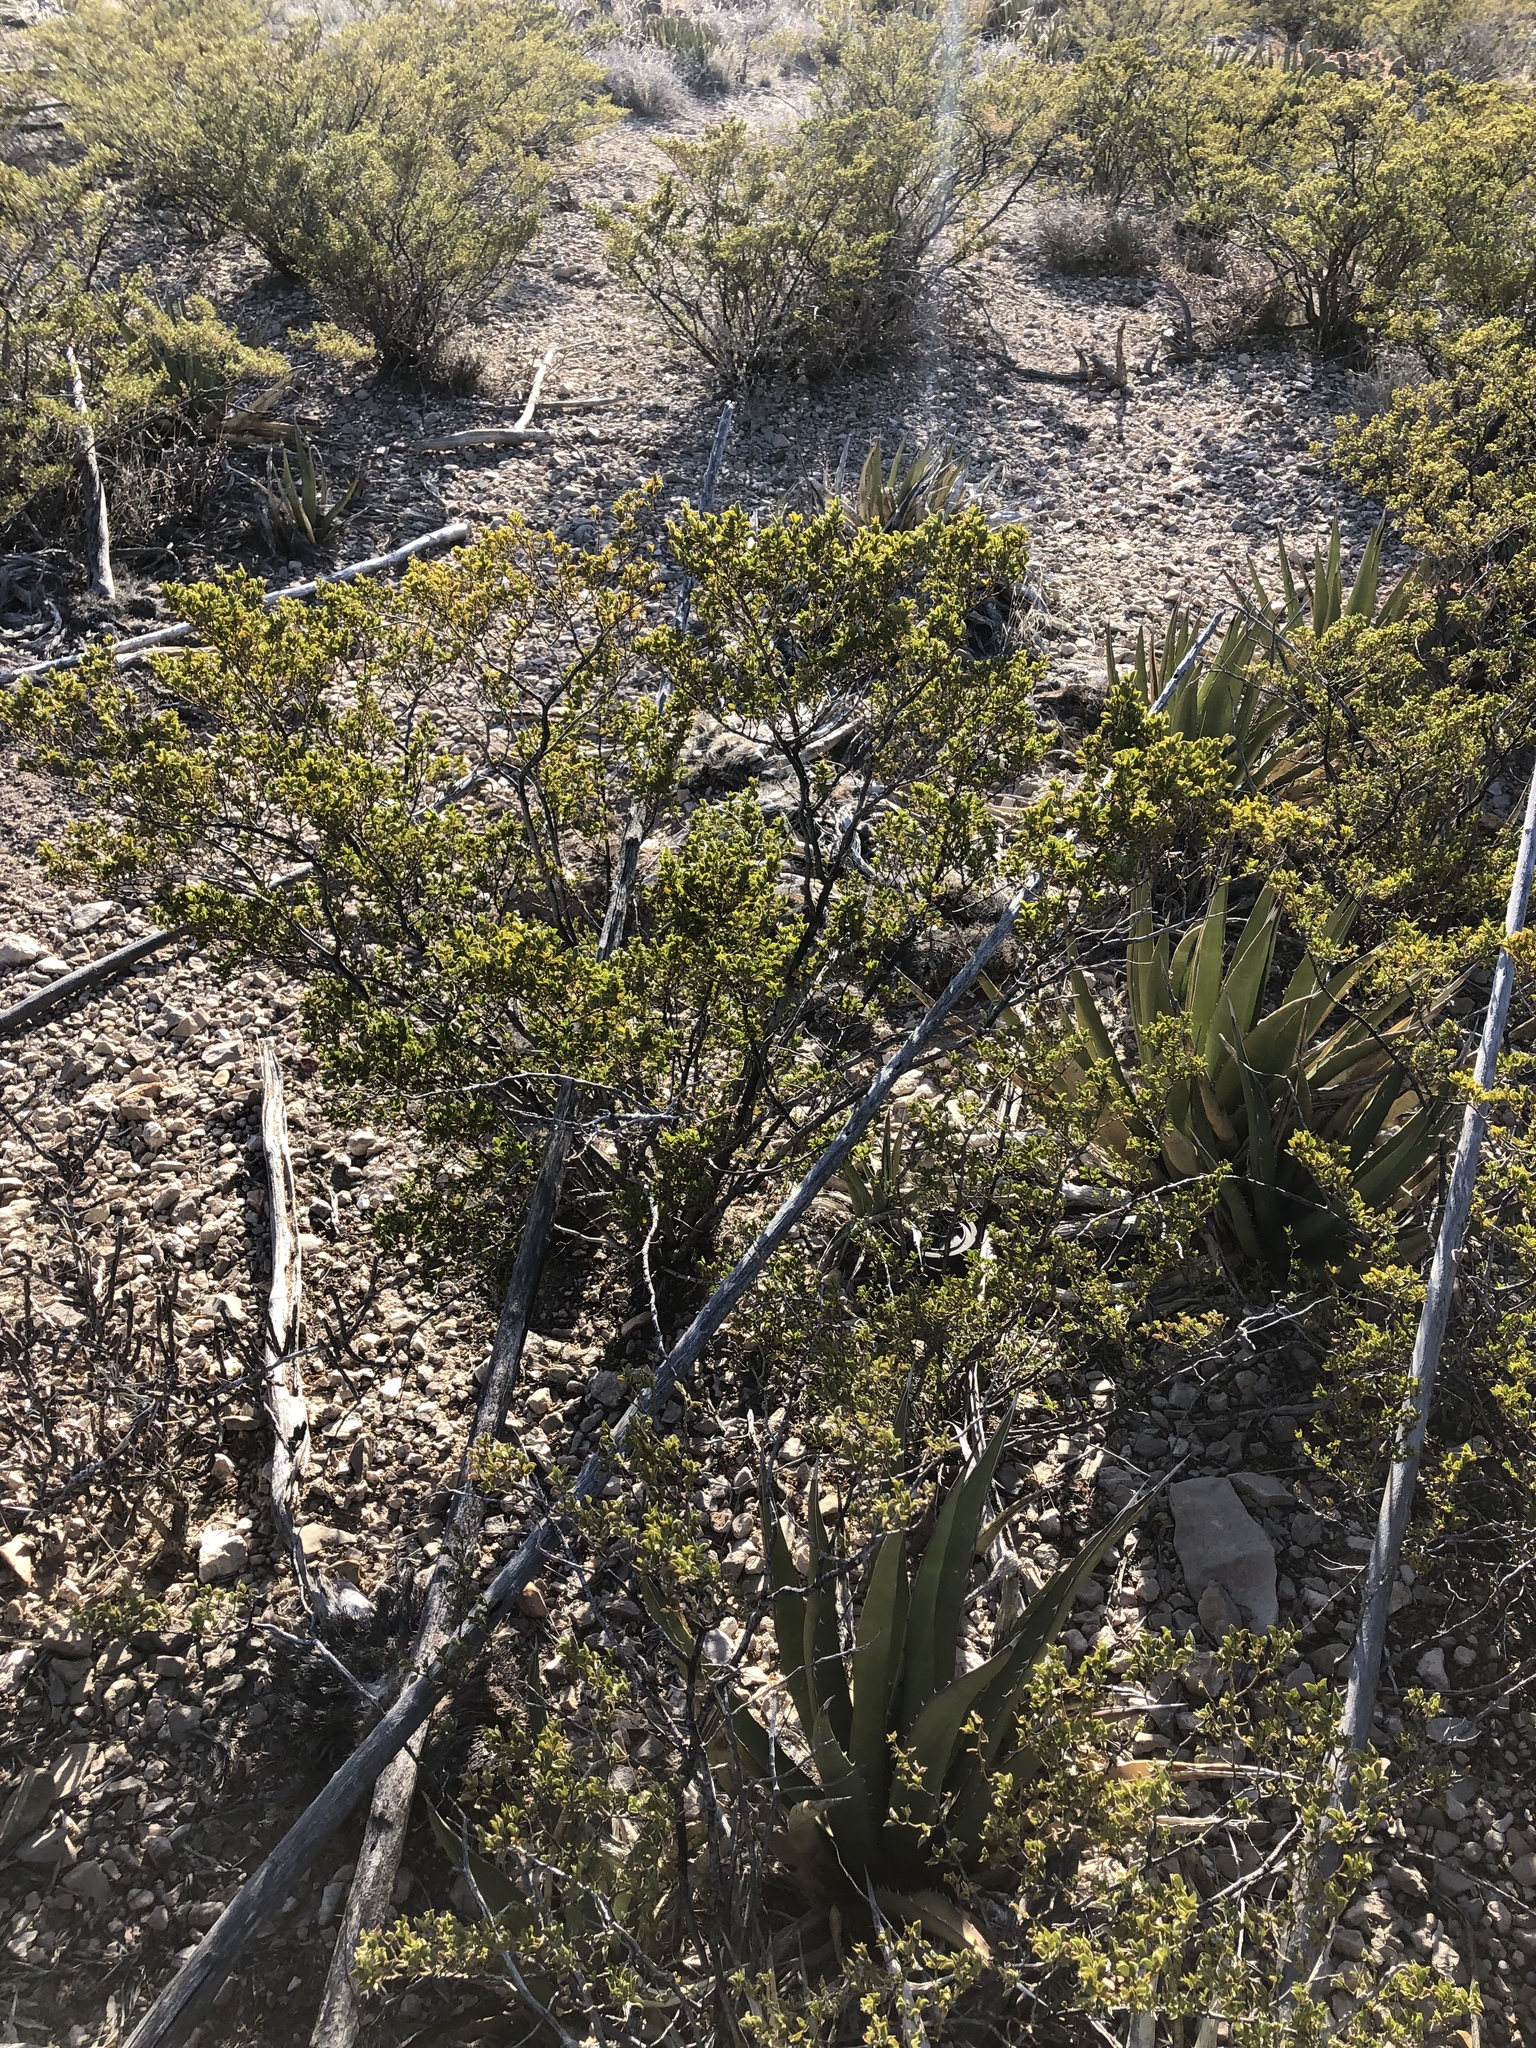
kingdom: Plantae
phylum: Tracheophyta
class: Magnoliopsida
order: Zygophyllales
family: Zygophyllaceae
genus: Larrea
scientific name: Larrea tridentata
